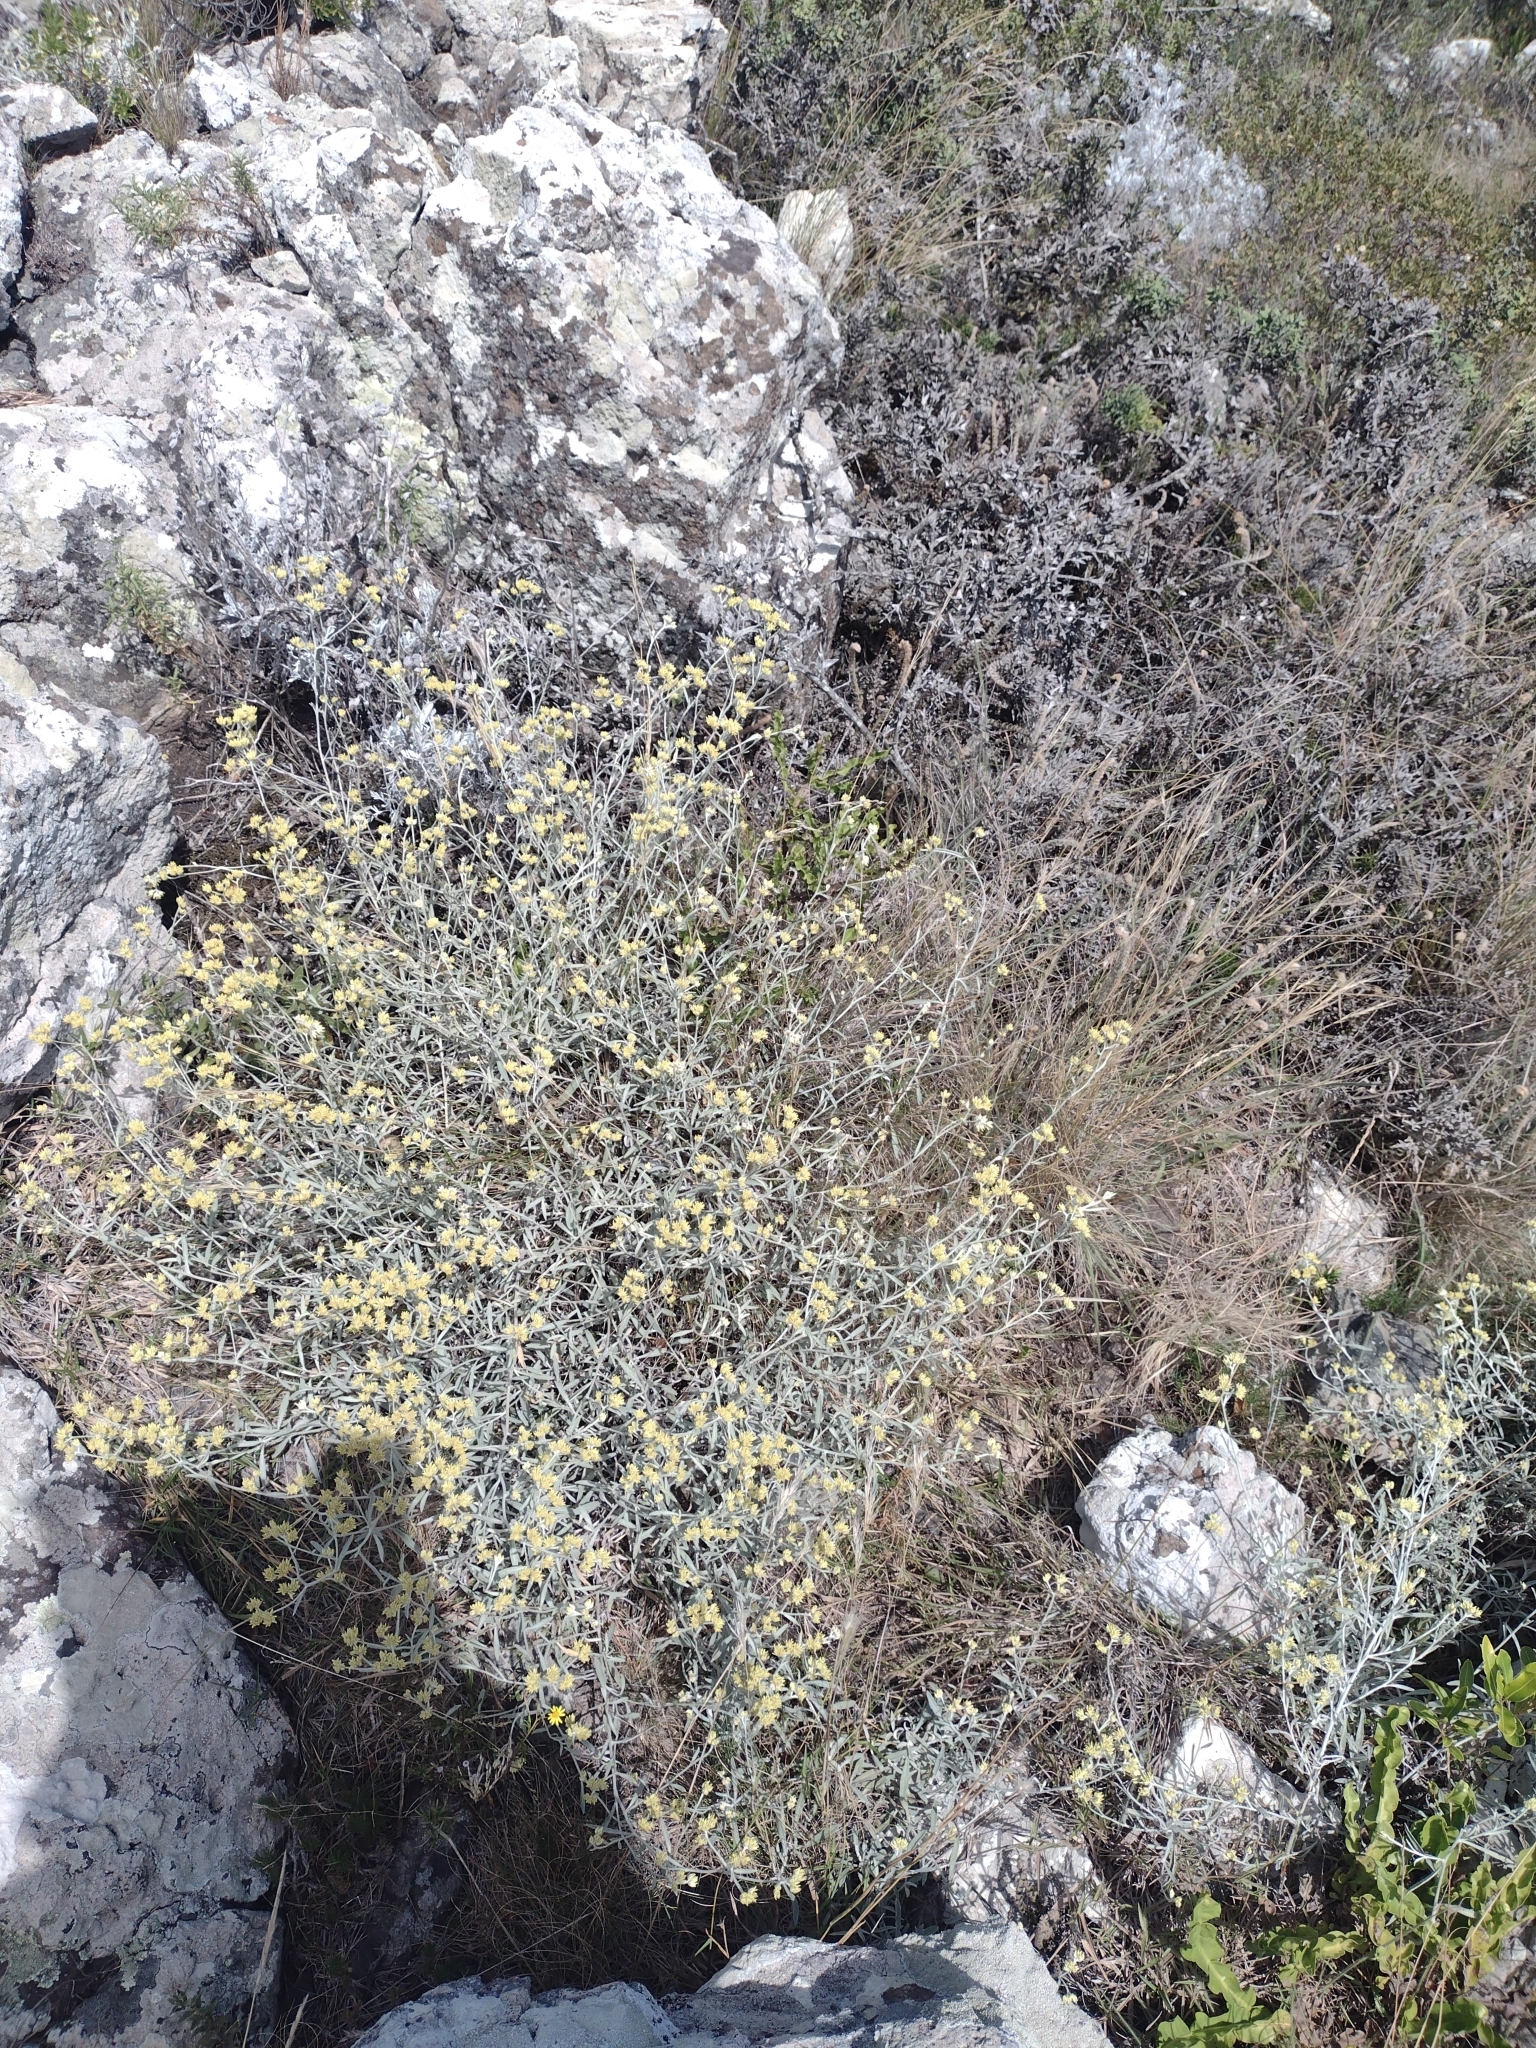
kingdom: Plantae
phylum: Tracheophyta
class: Magnoliopsida
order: Asterales
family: Asteraceae
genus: Achyrocline
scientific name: Achyrocline flaccida
